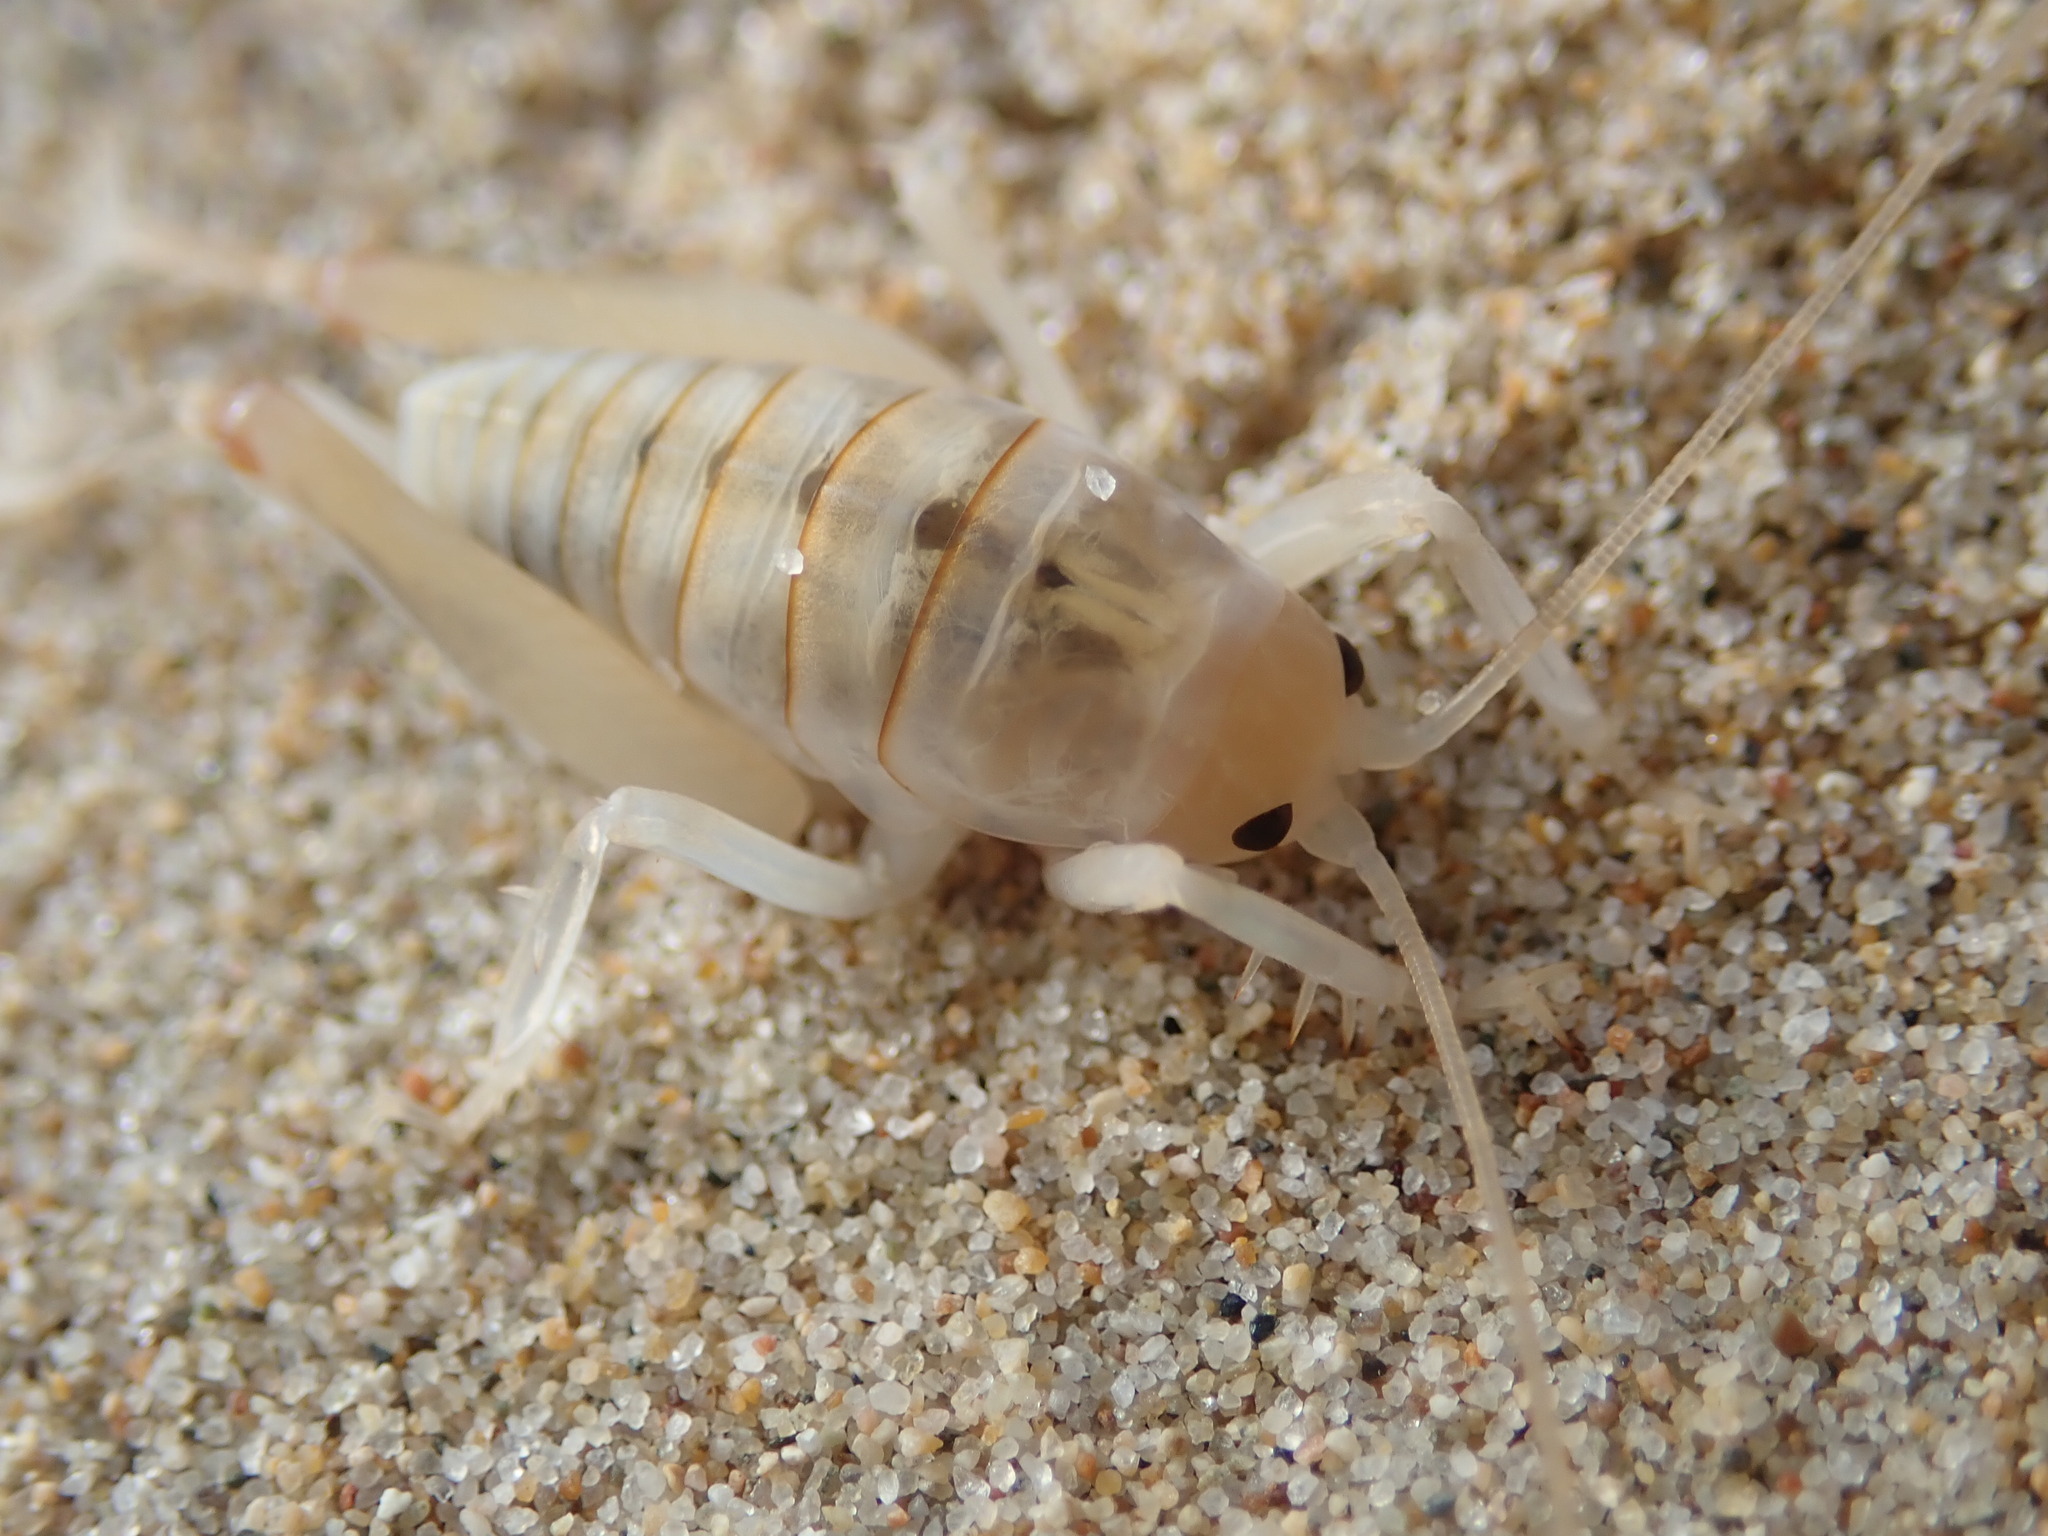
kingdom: Animalia
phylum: Arthropoda
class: Insecta
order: Orthoptera
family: Rhaphidophoridae
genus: Rhachocnemis
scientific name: Rhachocnemis validus
